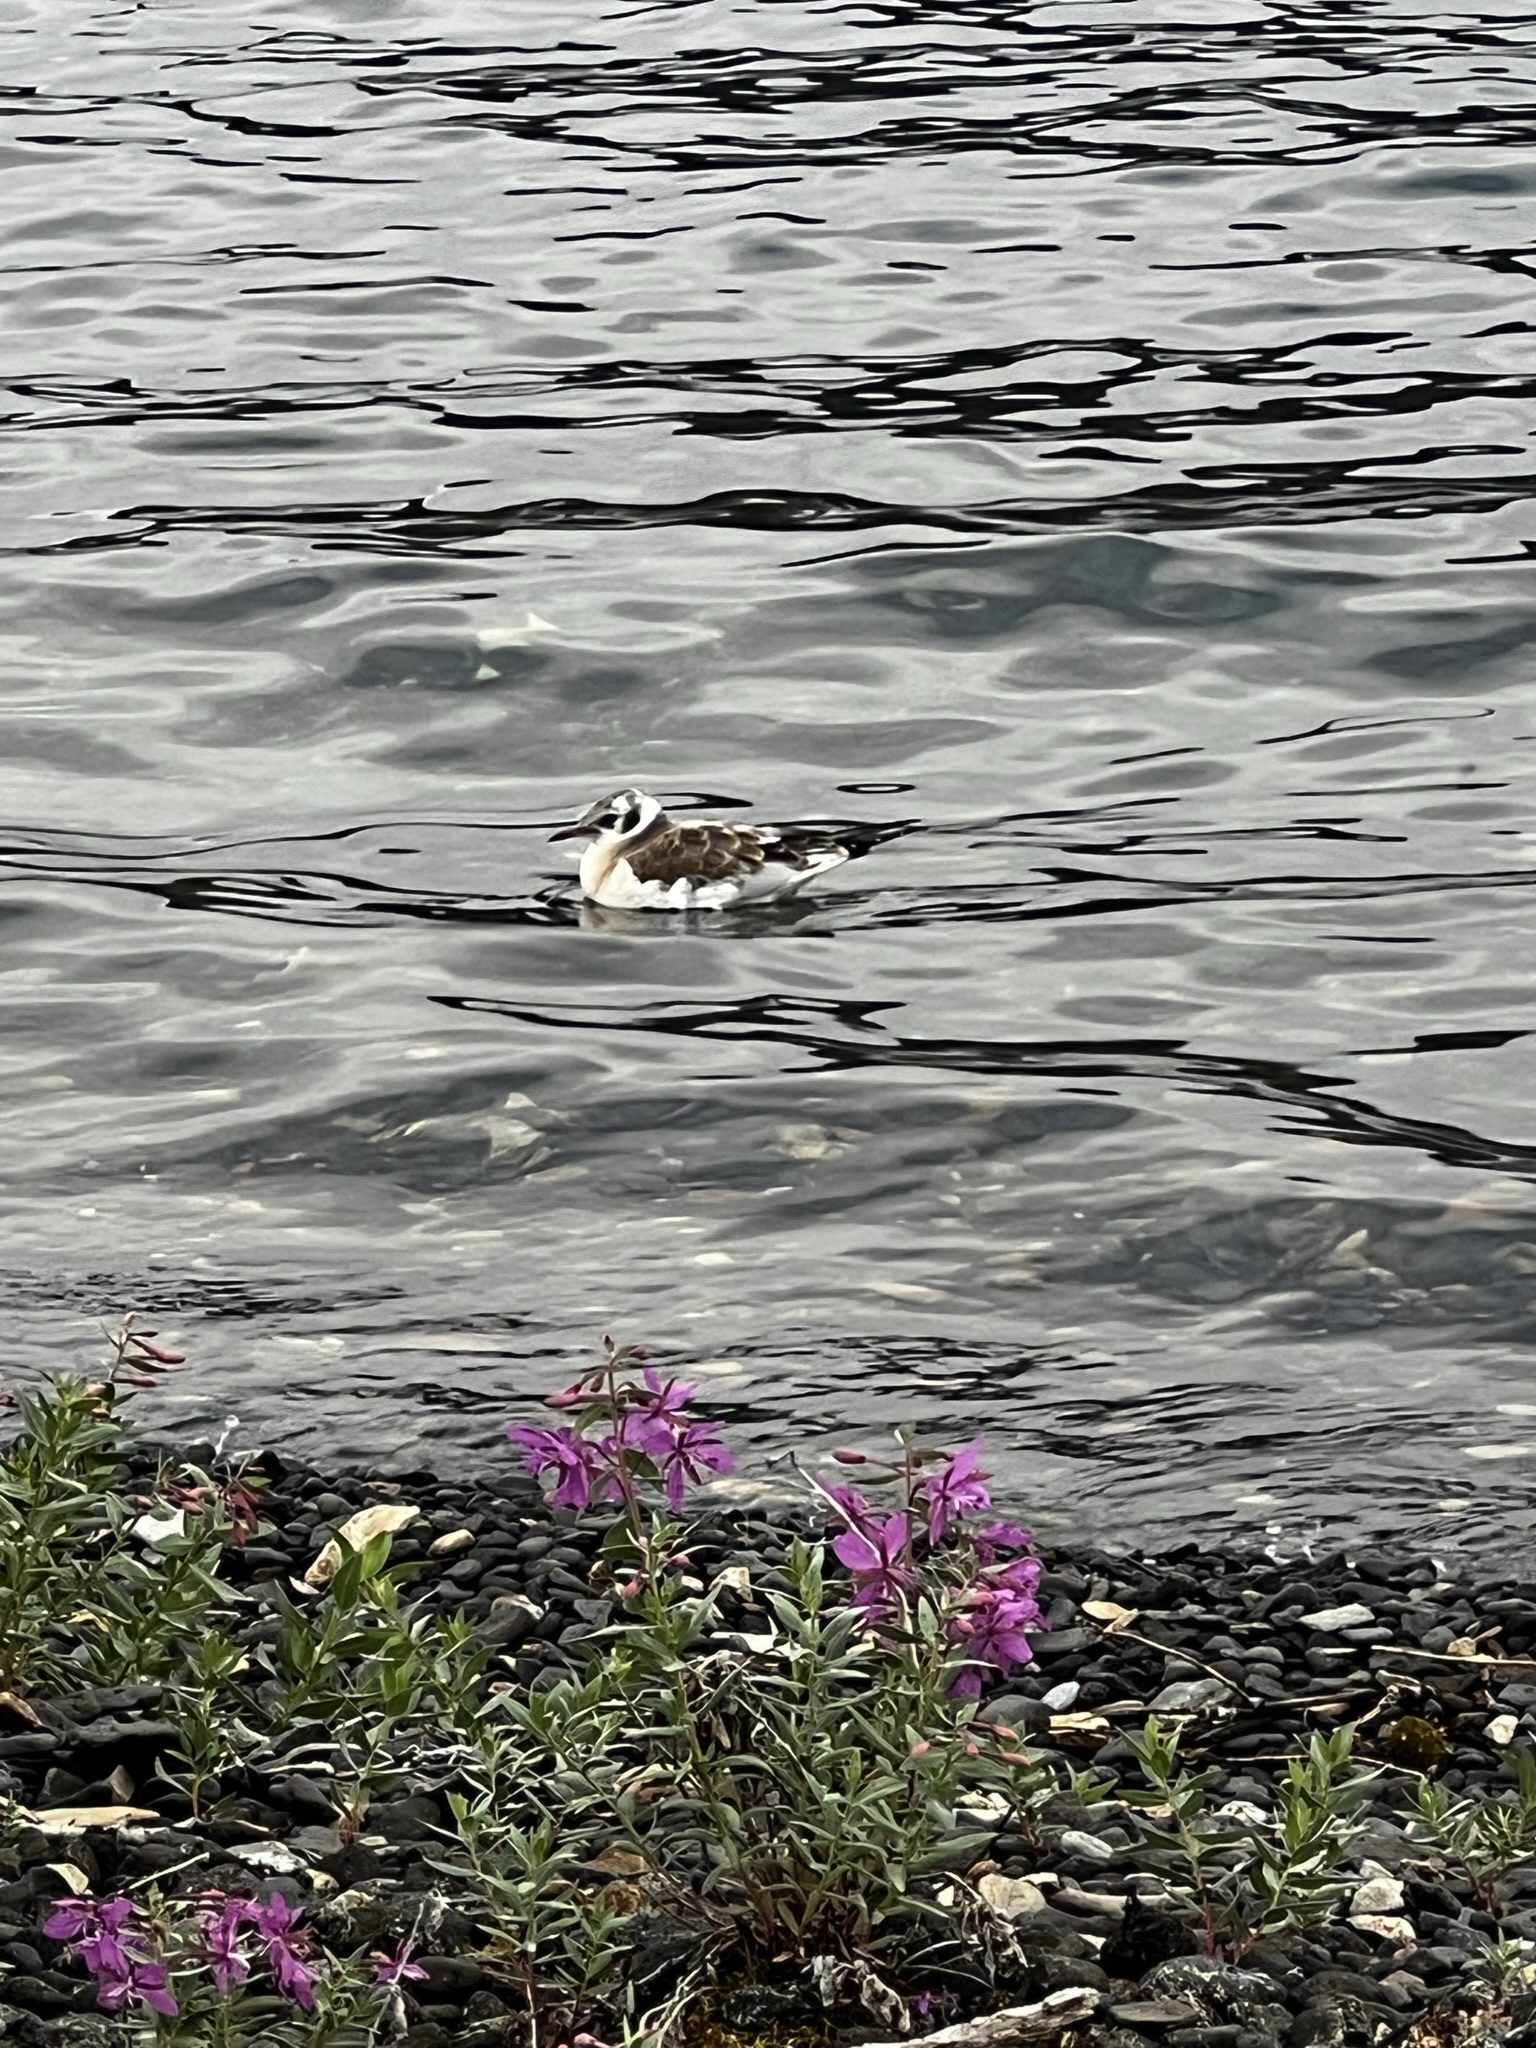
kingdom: Animalia
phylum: Chordata
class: Aves
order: Charadriiformes
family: Laridae
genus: Chroicocephalus
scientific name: Chroicocephalus philadelphia
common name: Bonaparte's gull
